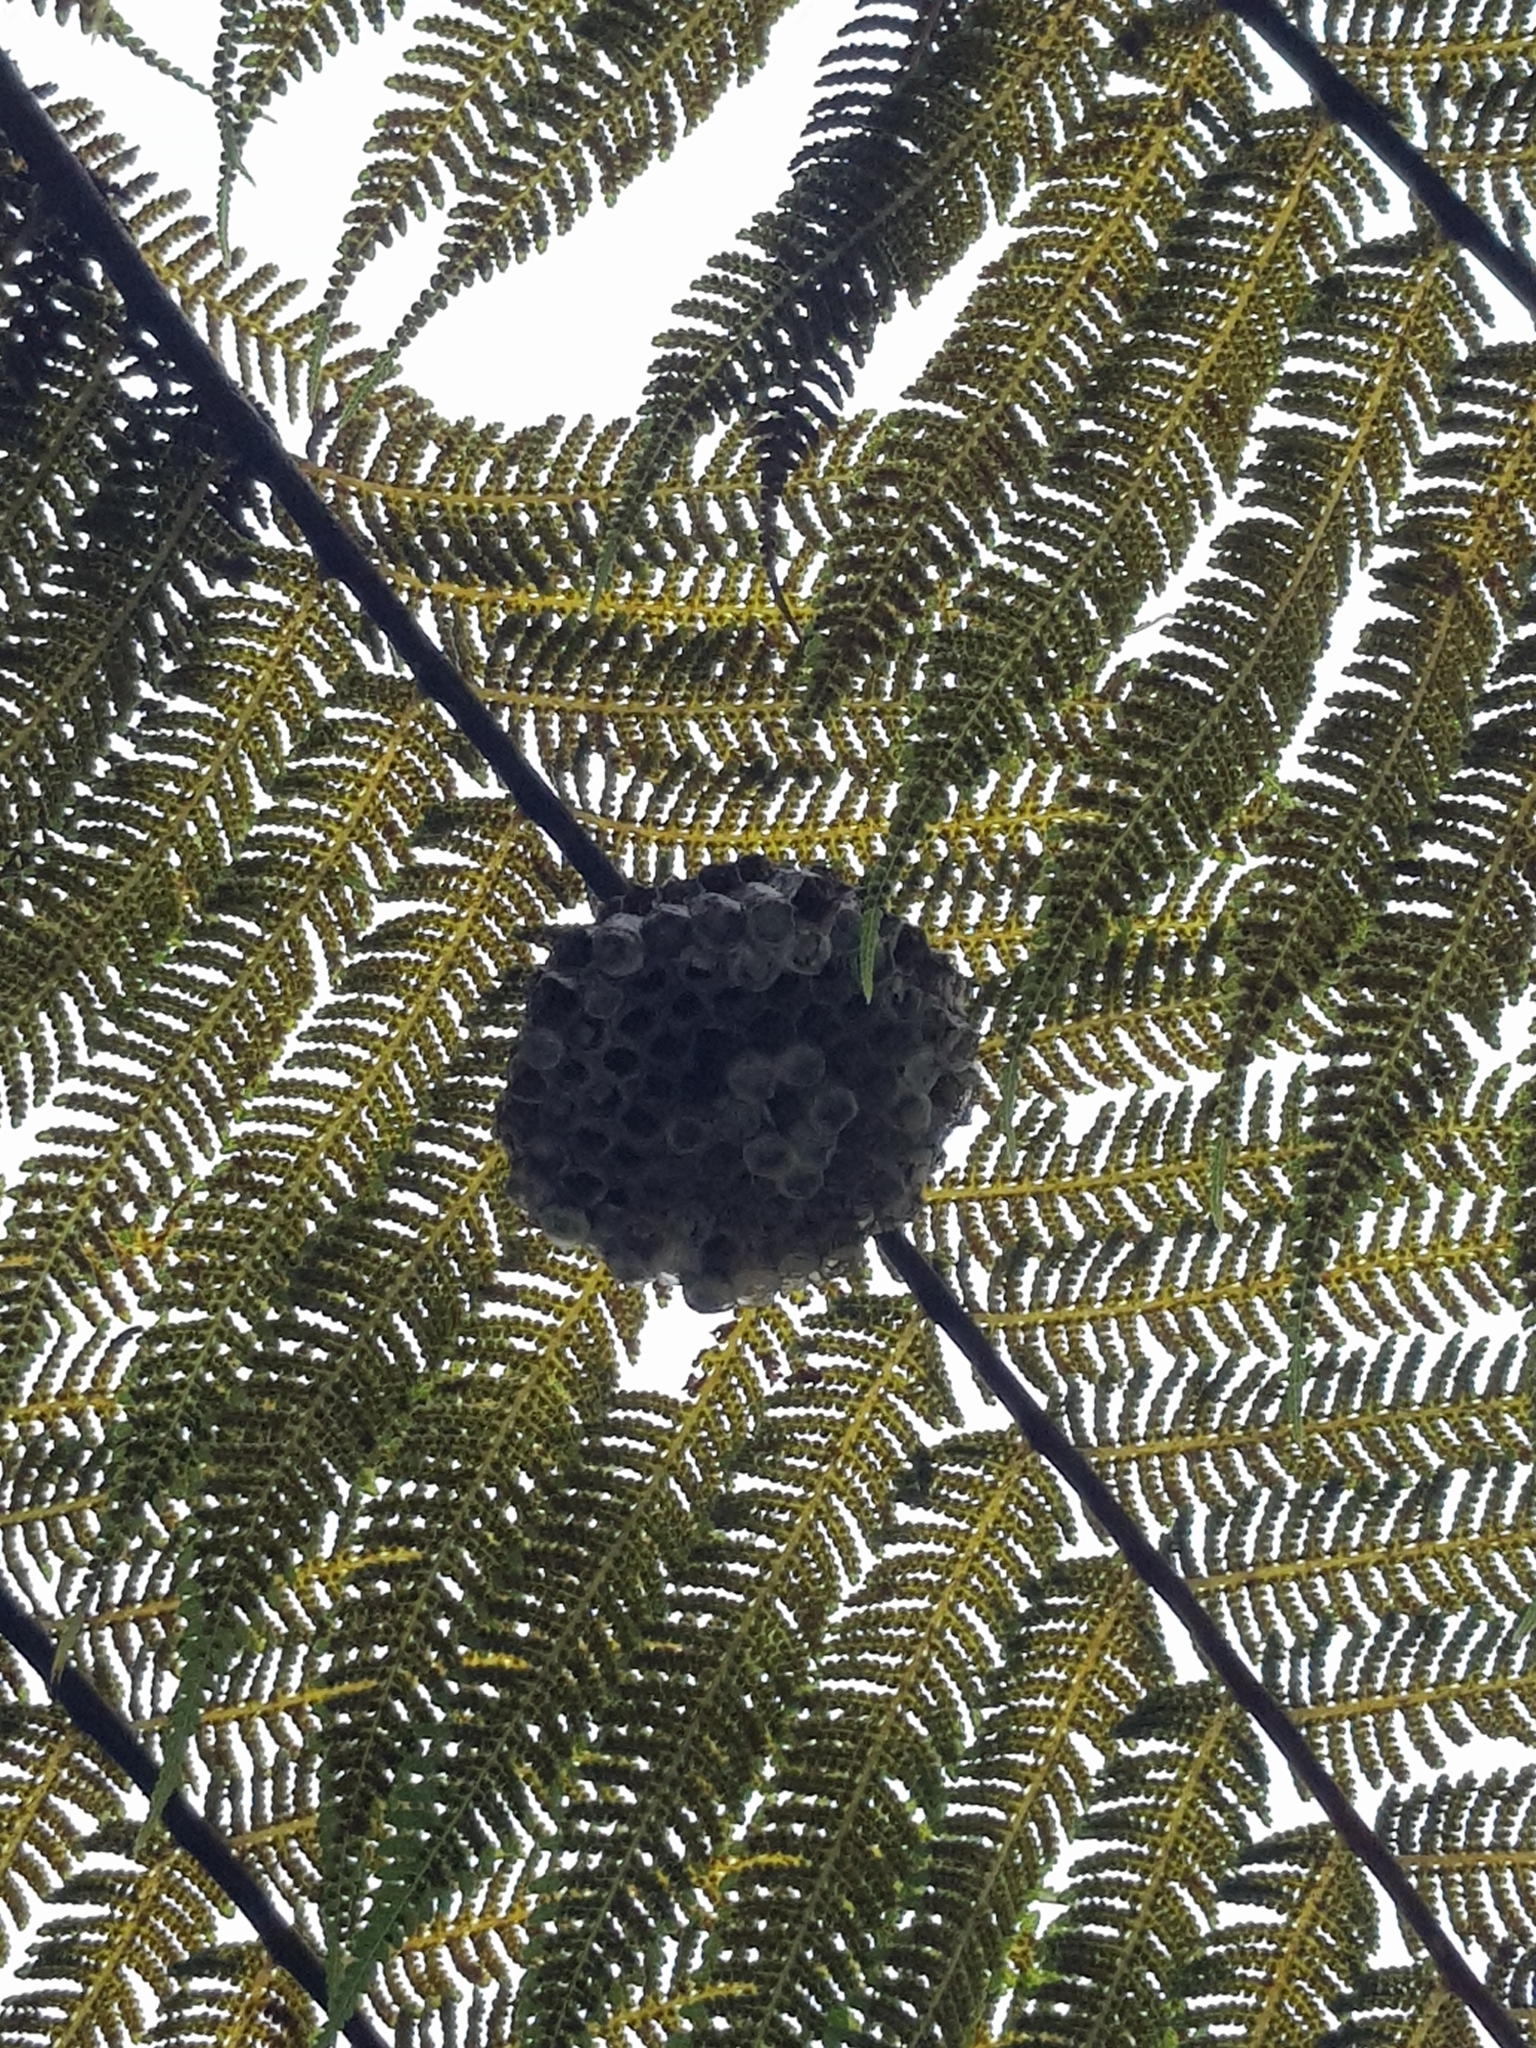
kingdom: Animalia
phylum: Arthropoda
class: Insecta
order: Hymenoptera
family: Eumenidae
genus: Polistes
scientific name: Polistes humilis
